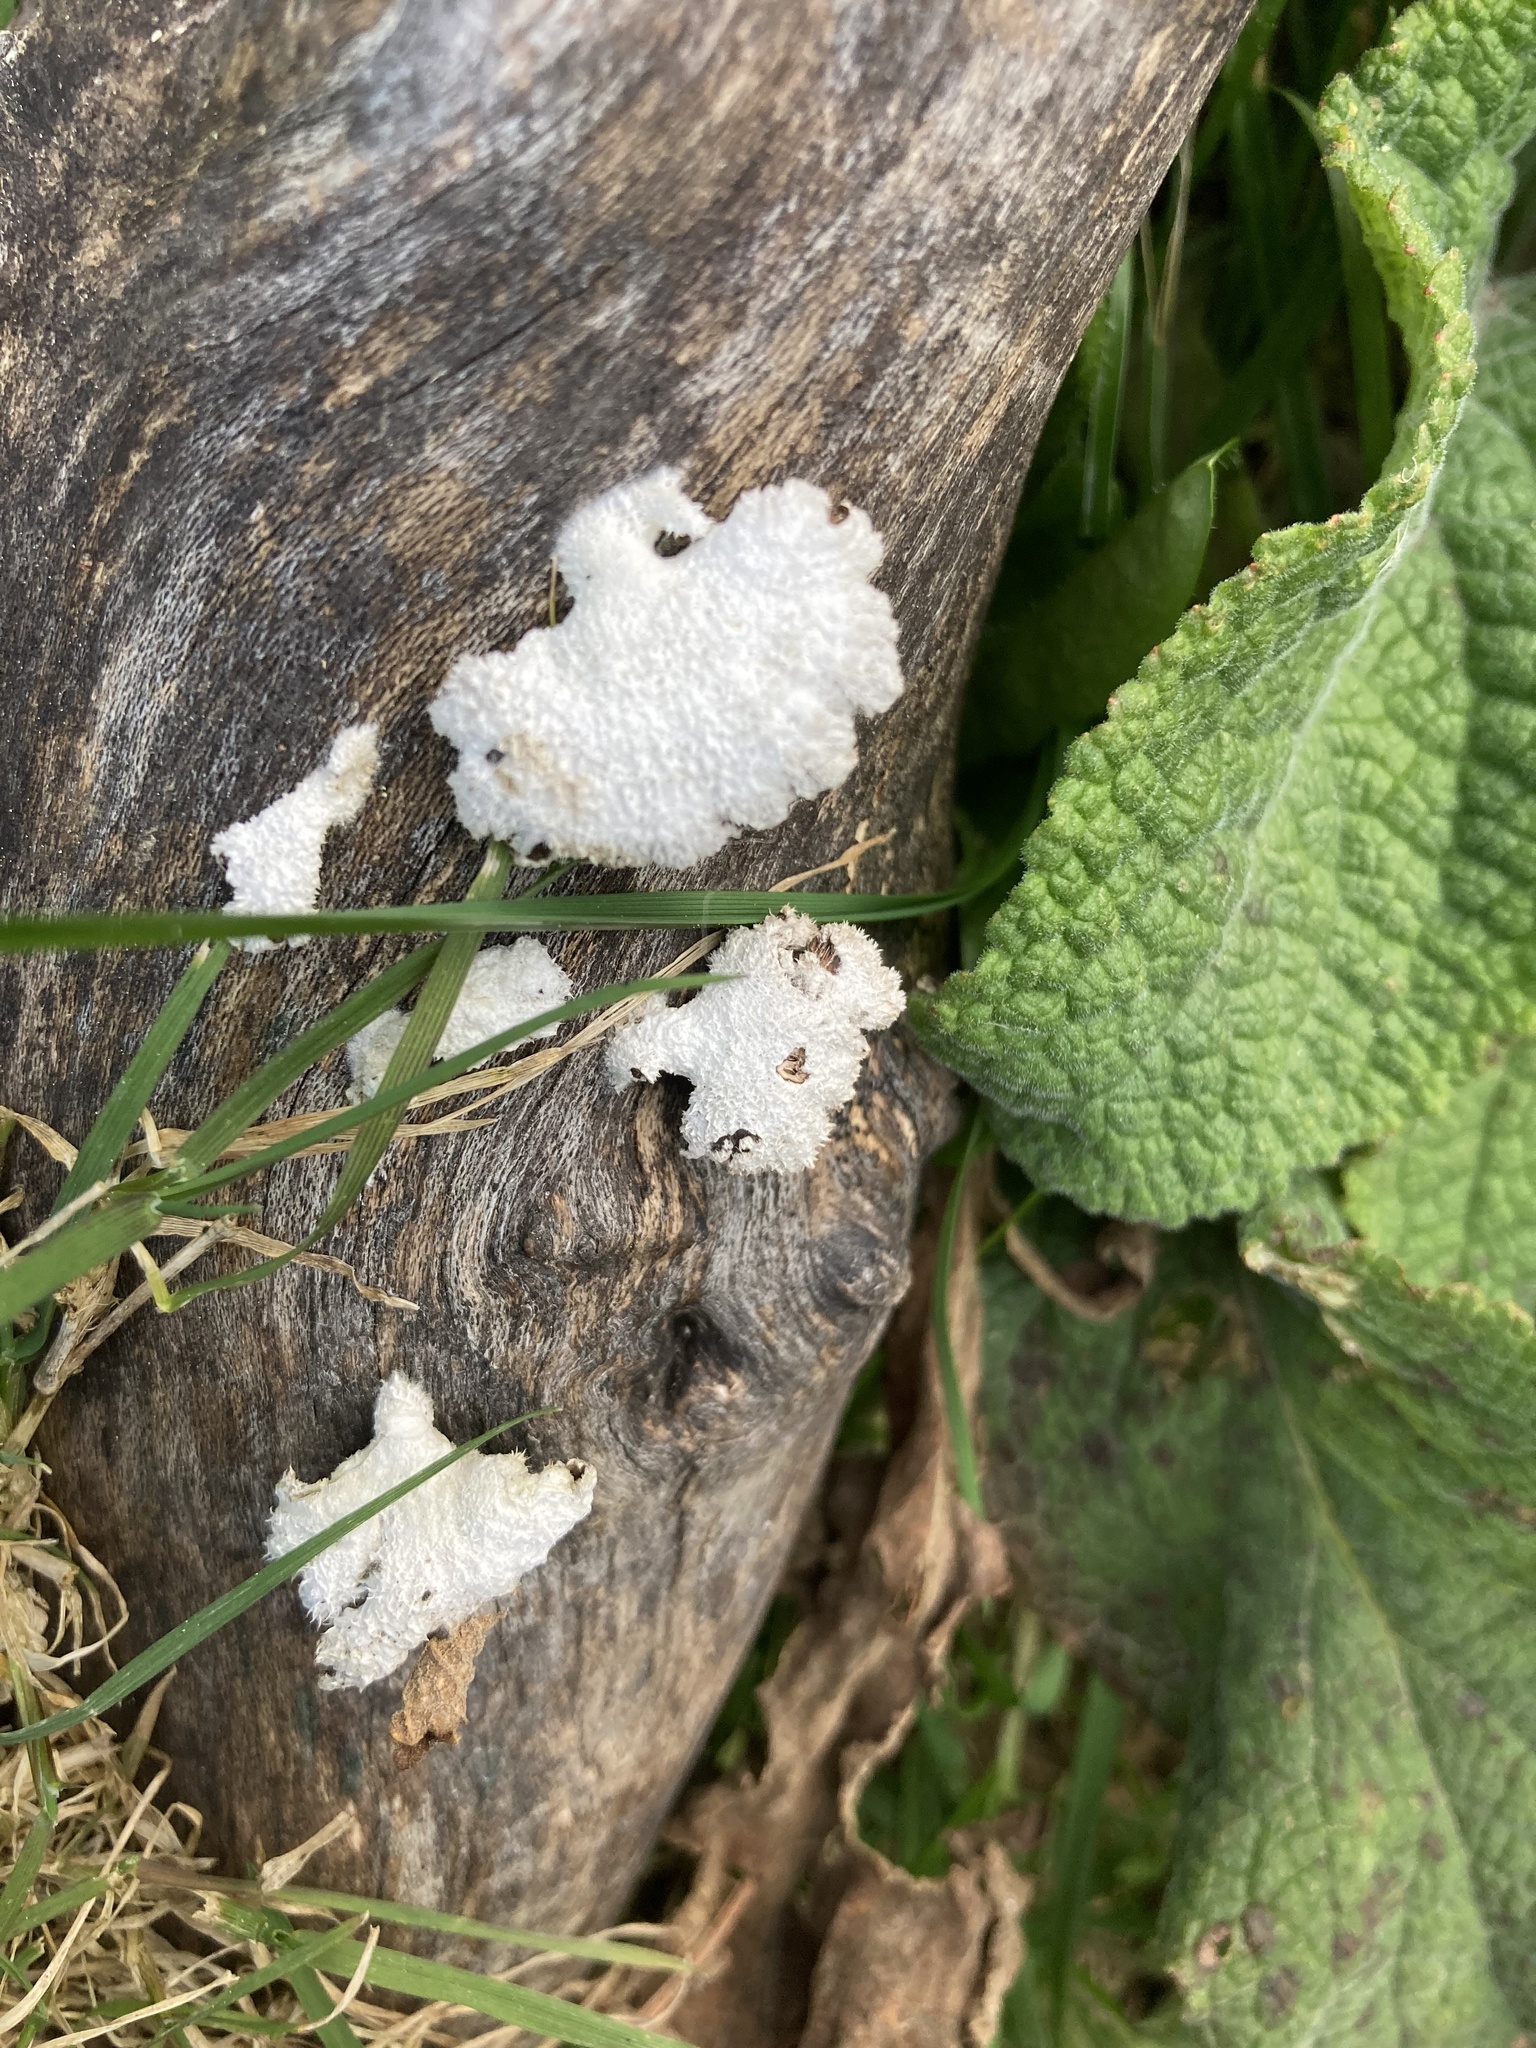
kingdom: Fungi
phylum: Basidiomycota
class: Agaricomycetes
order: Agaricales
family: Schizophyllaceae
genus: Schizophyllum
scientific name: Schizophyllum commune
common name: Common porecrust
